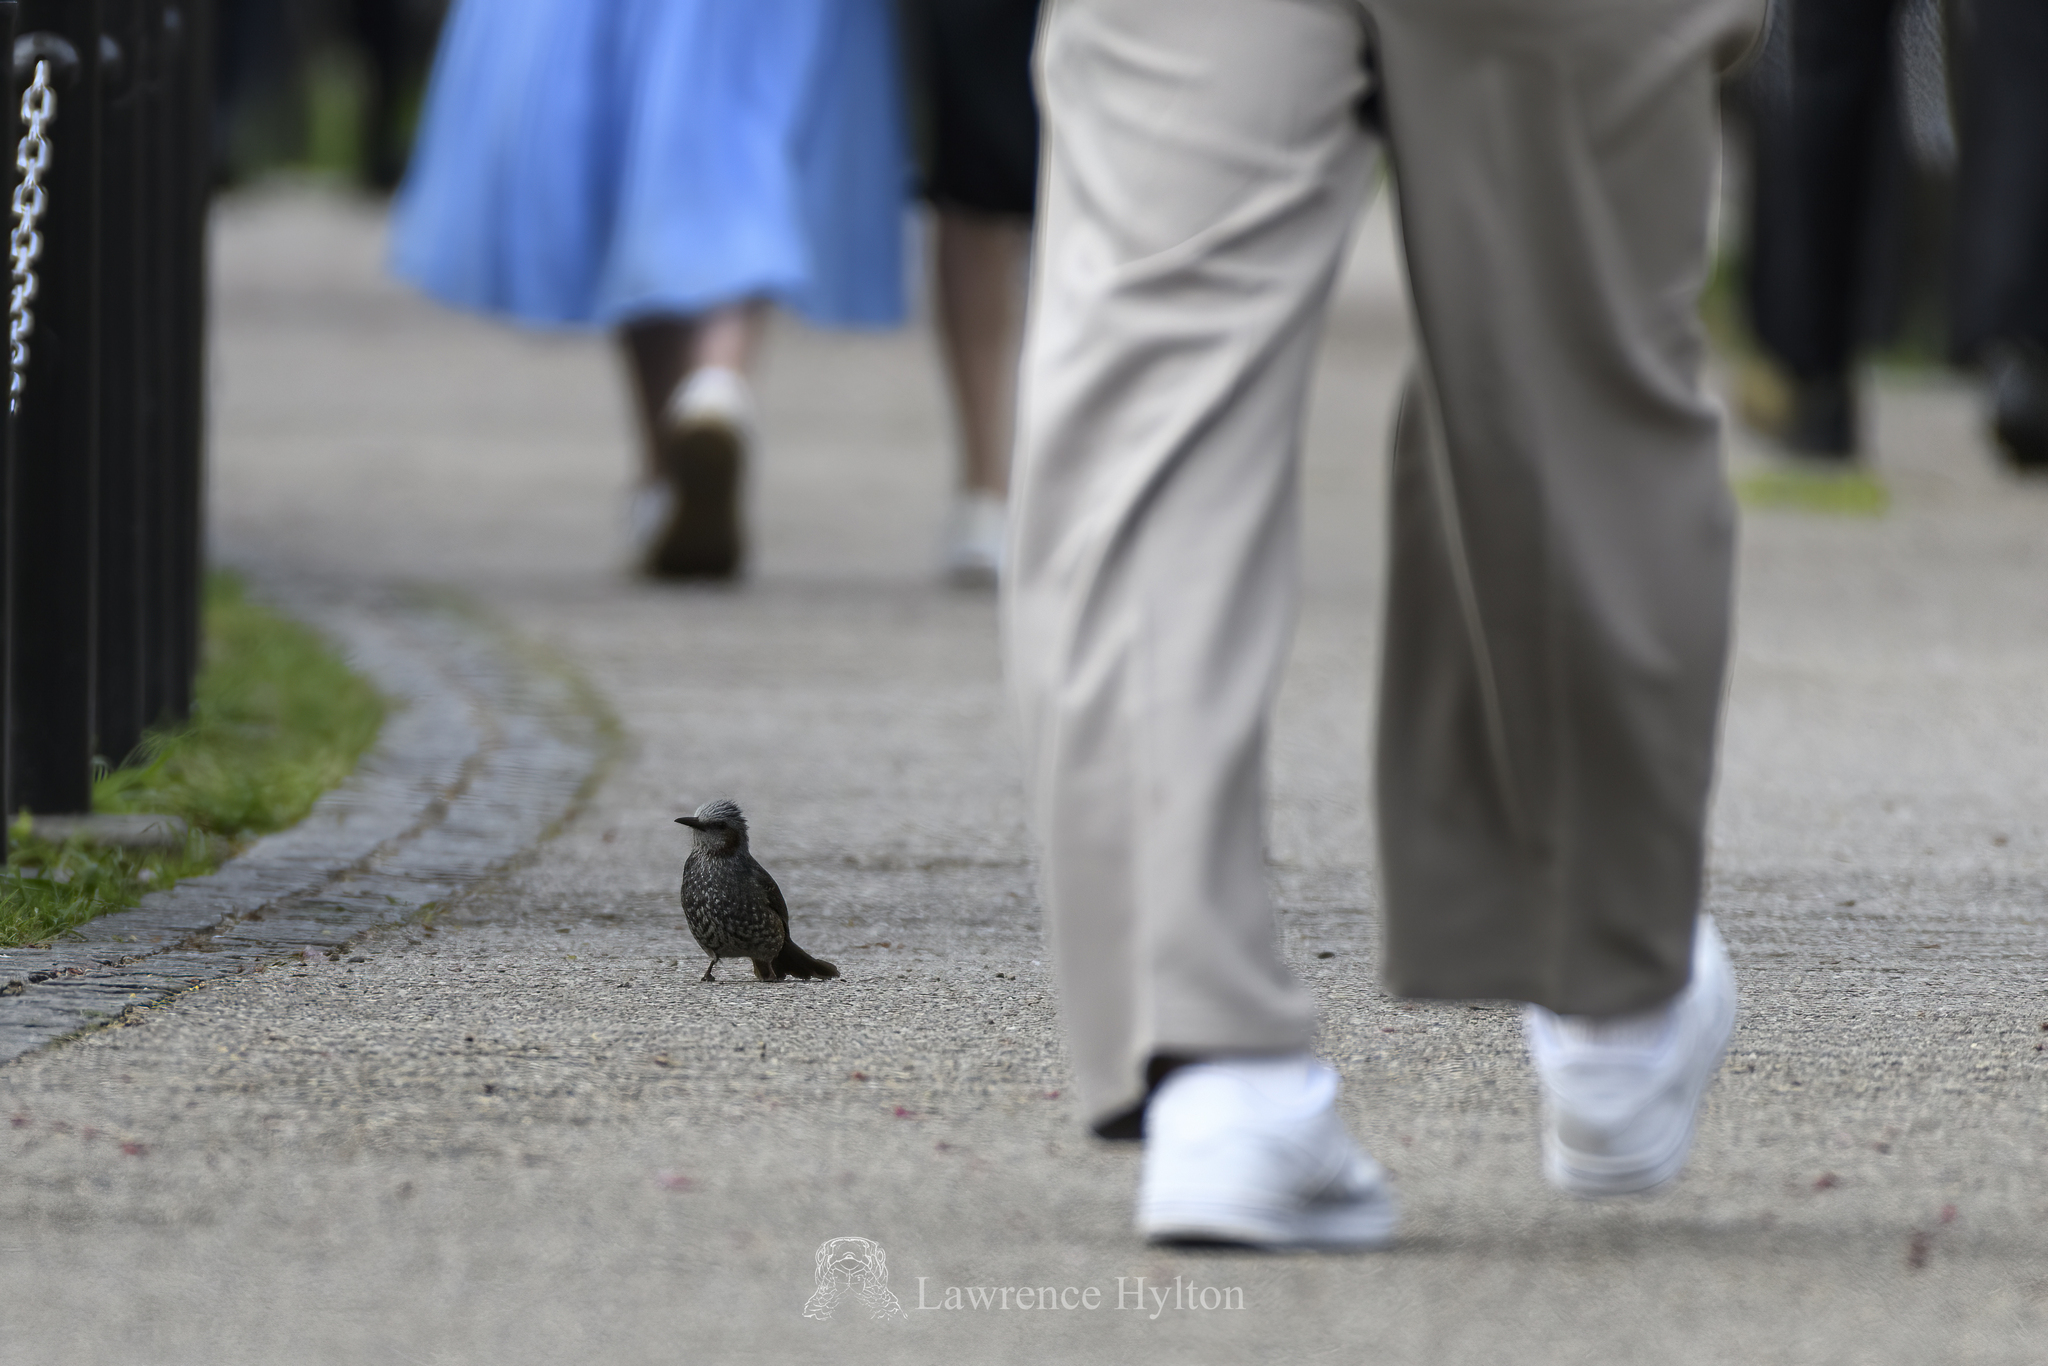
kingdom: Animalia
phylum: Chordata
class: Aves
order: Passeriformes
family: Pycnonotidae
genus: Hypsipetes
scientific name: Hypsipetes amaurotis
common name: Brown-eared bulbul
